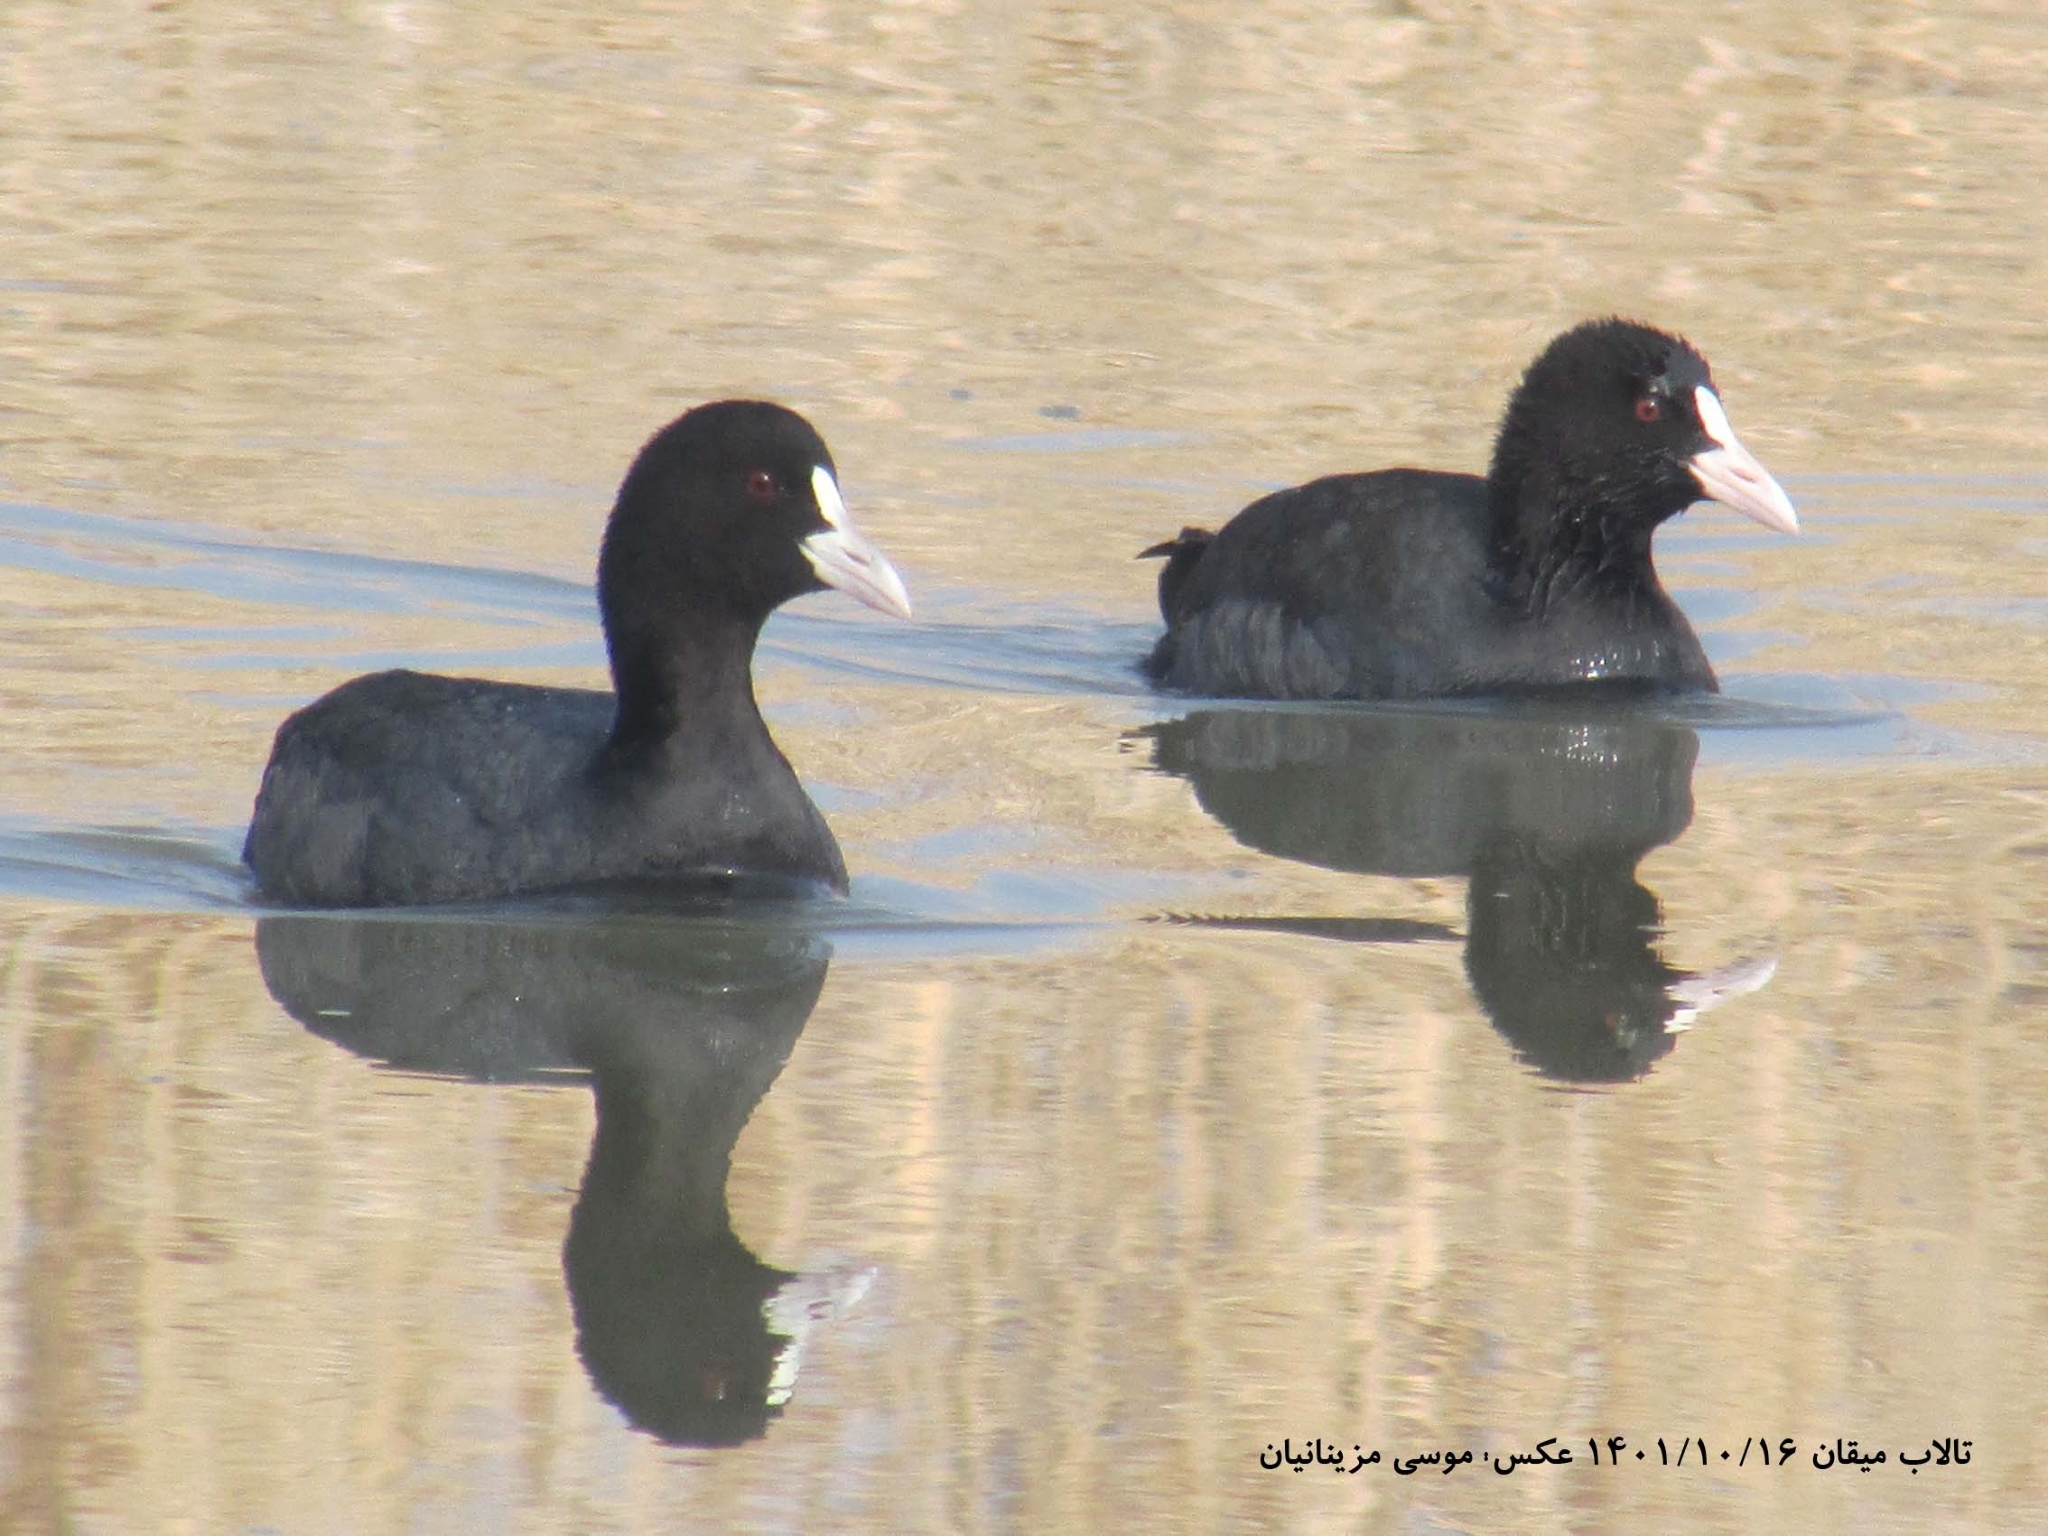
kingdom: Animalia
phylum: Chordata
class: Aves
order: Gruiformes
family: Rallidae
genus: Fulica
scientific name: Fulica atra
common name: Eurasian coot
